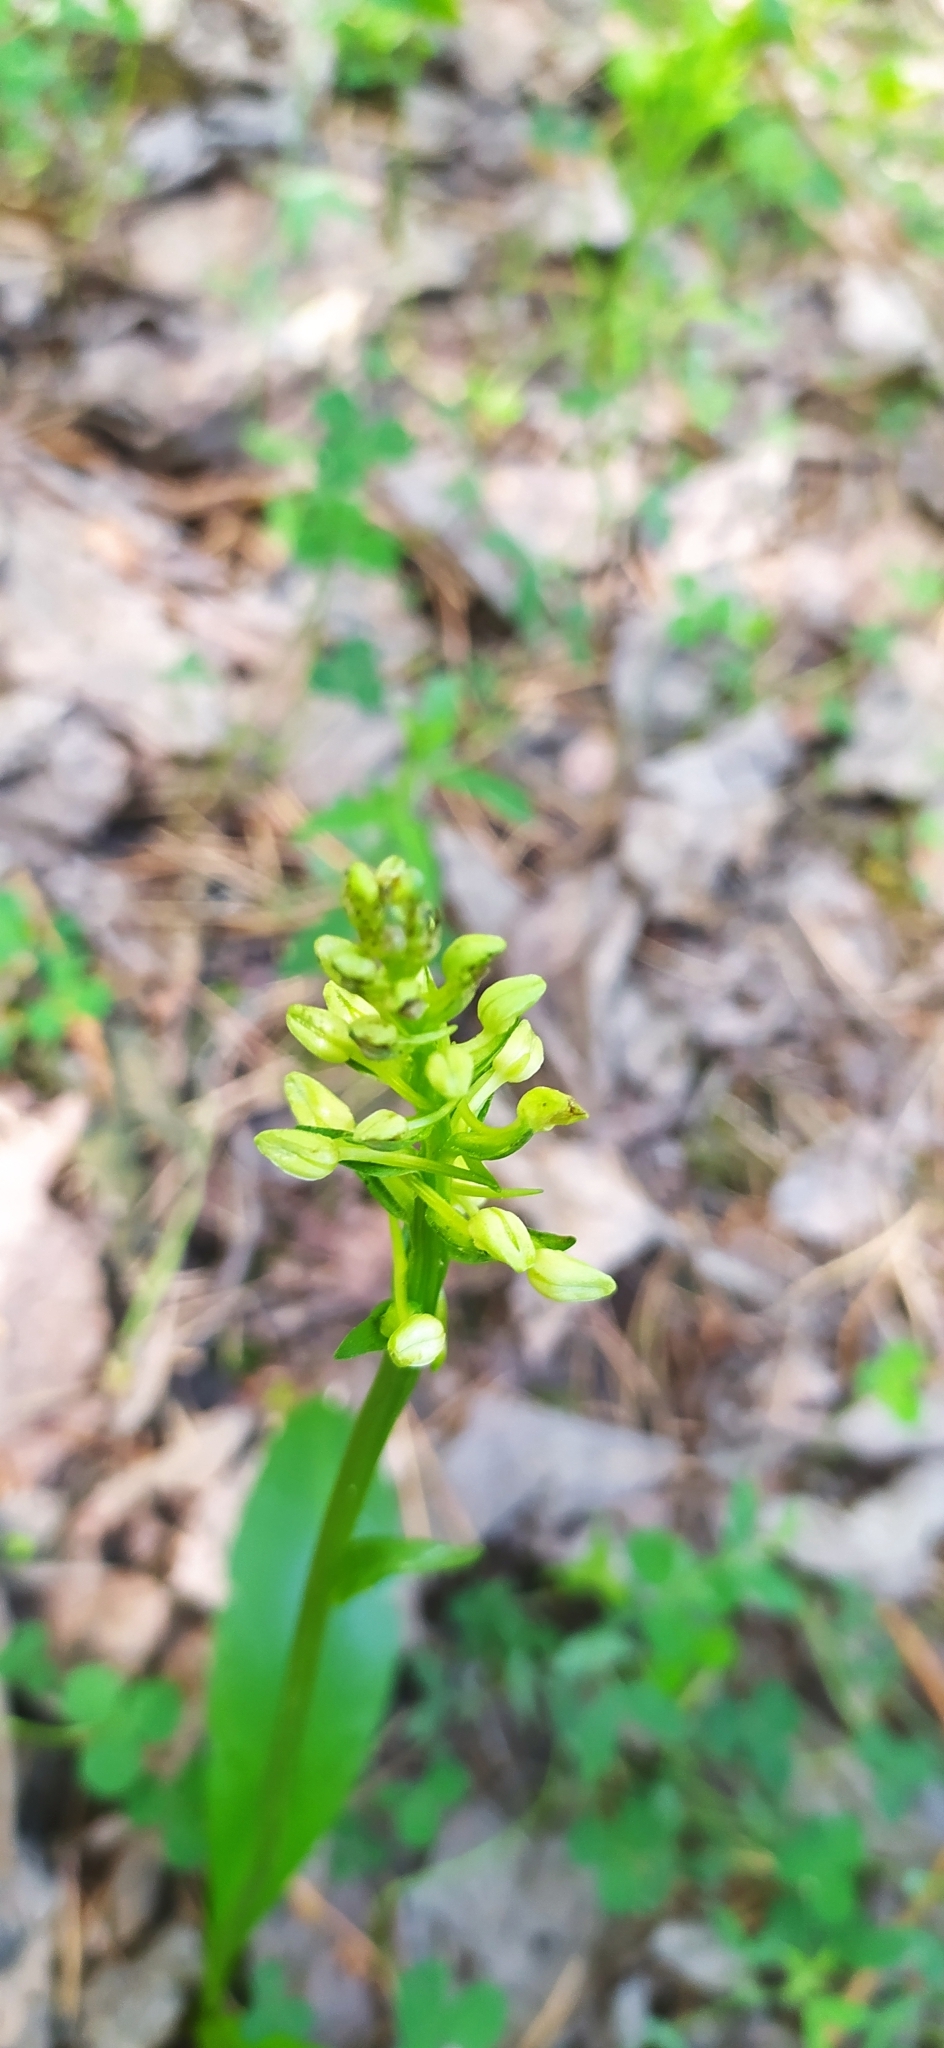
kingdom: Plantae
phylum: Tracheophyta
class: Liliopsida
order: Asparagales
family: Orchidaceae
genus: Platanthera
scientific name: Platanthera bifolia
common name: Lesser butterfly-orchid
